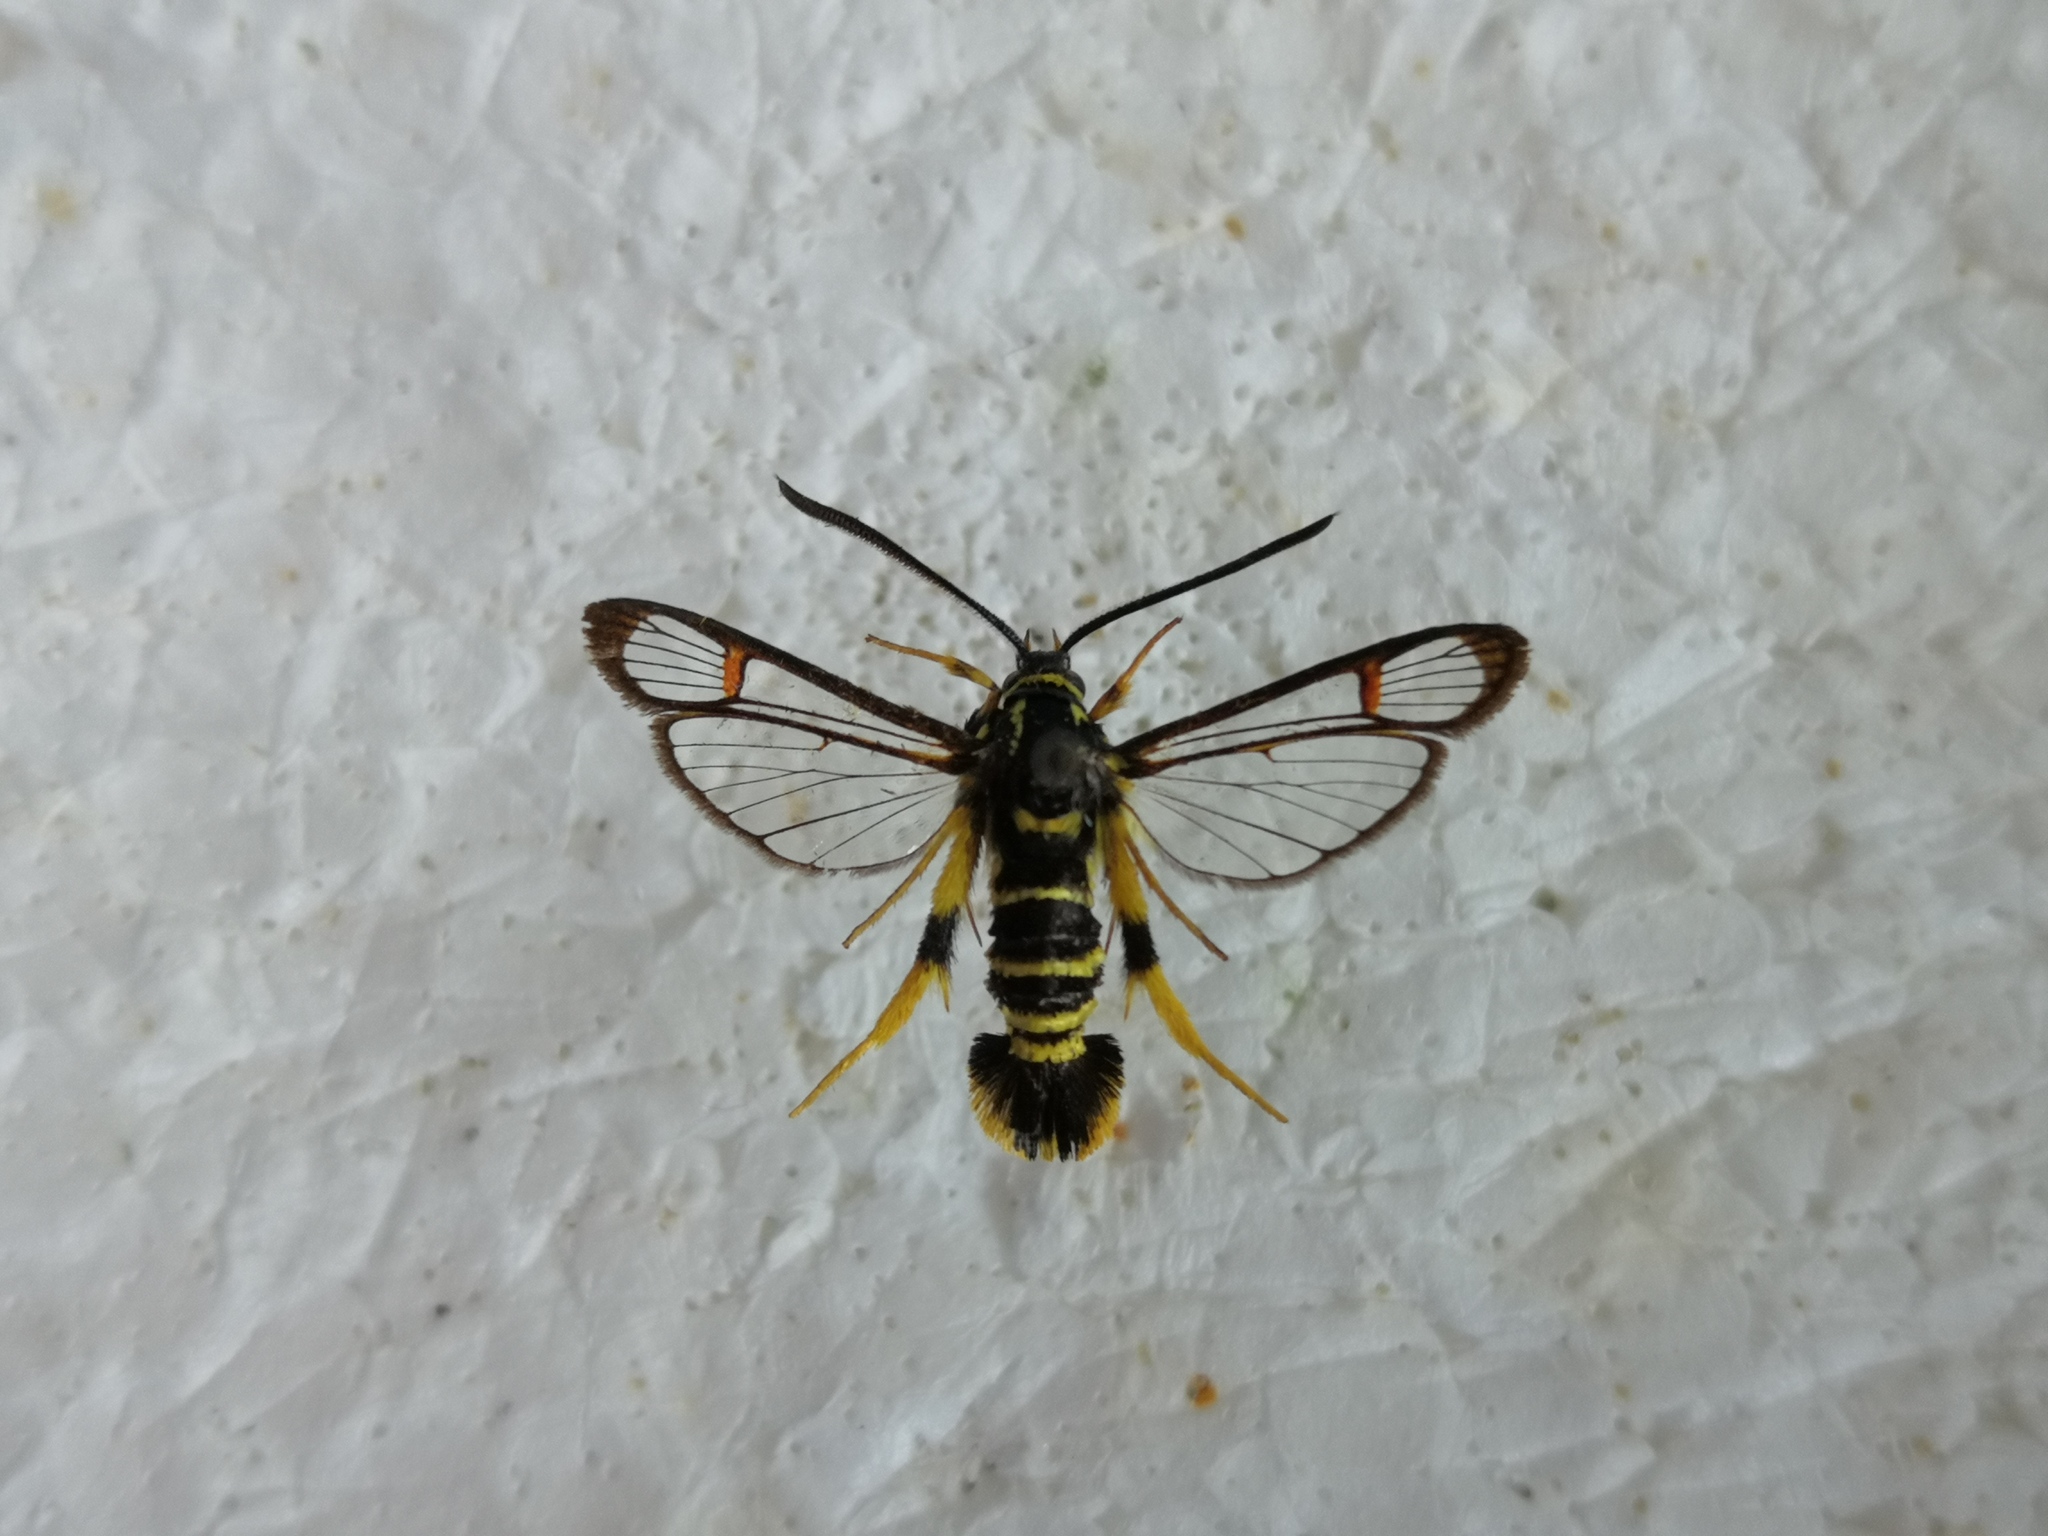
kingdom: Animalia
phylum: Arthropoda
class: Insecta
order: Lepidoptera
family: Sesiidae
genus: Synanthedon
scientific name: Synanthedon vespiformis
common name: Yellow-legged clearwing
